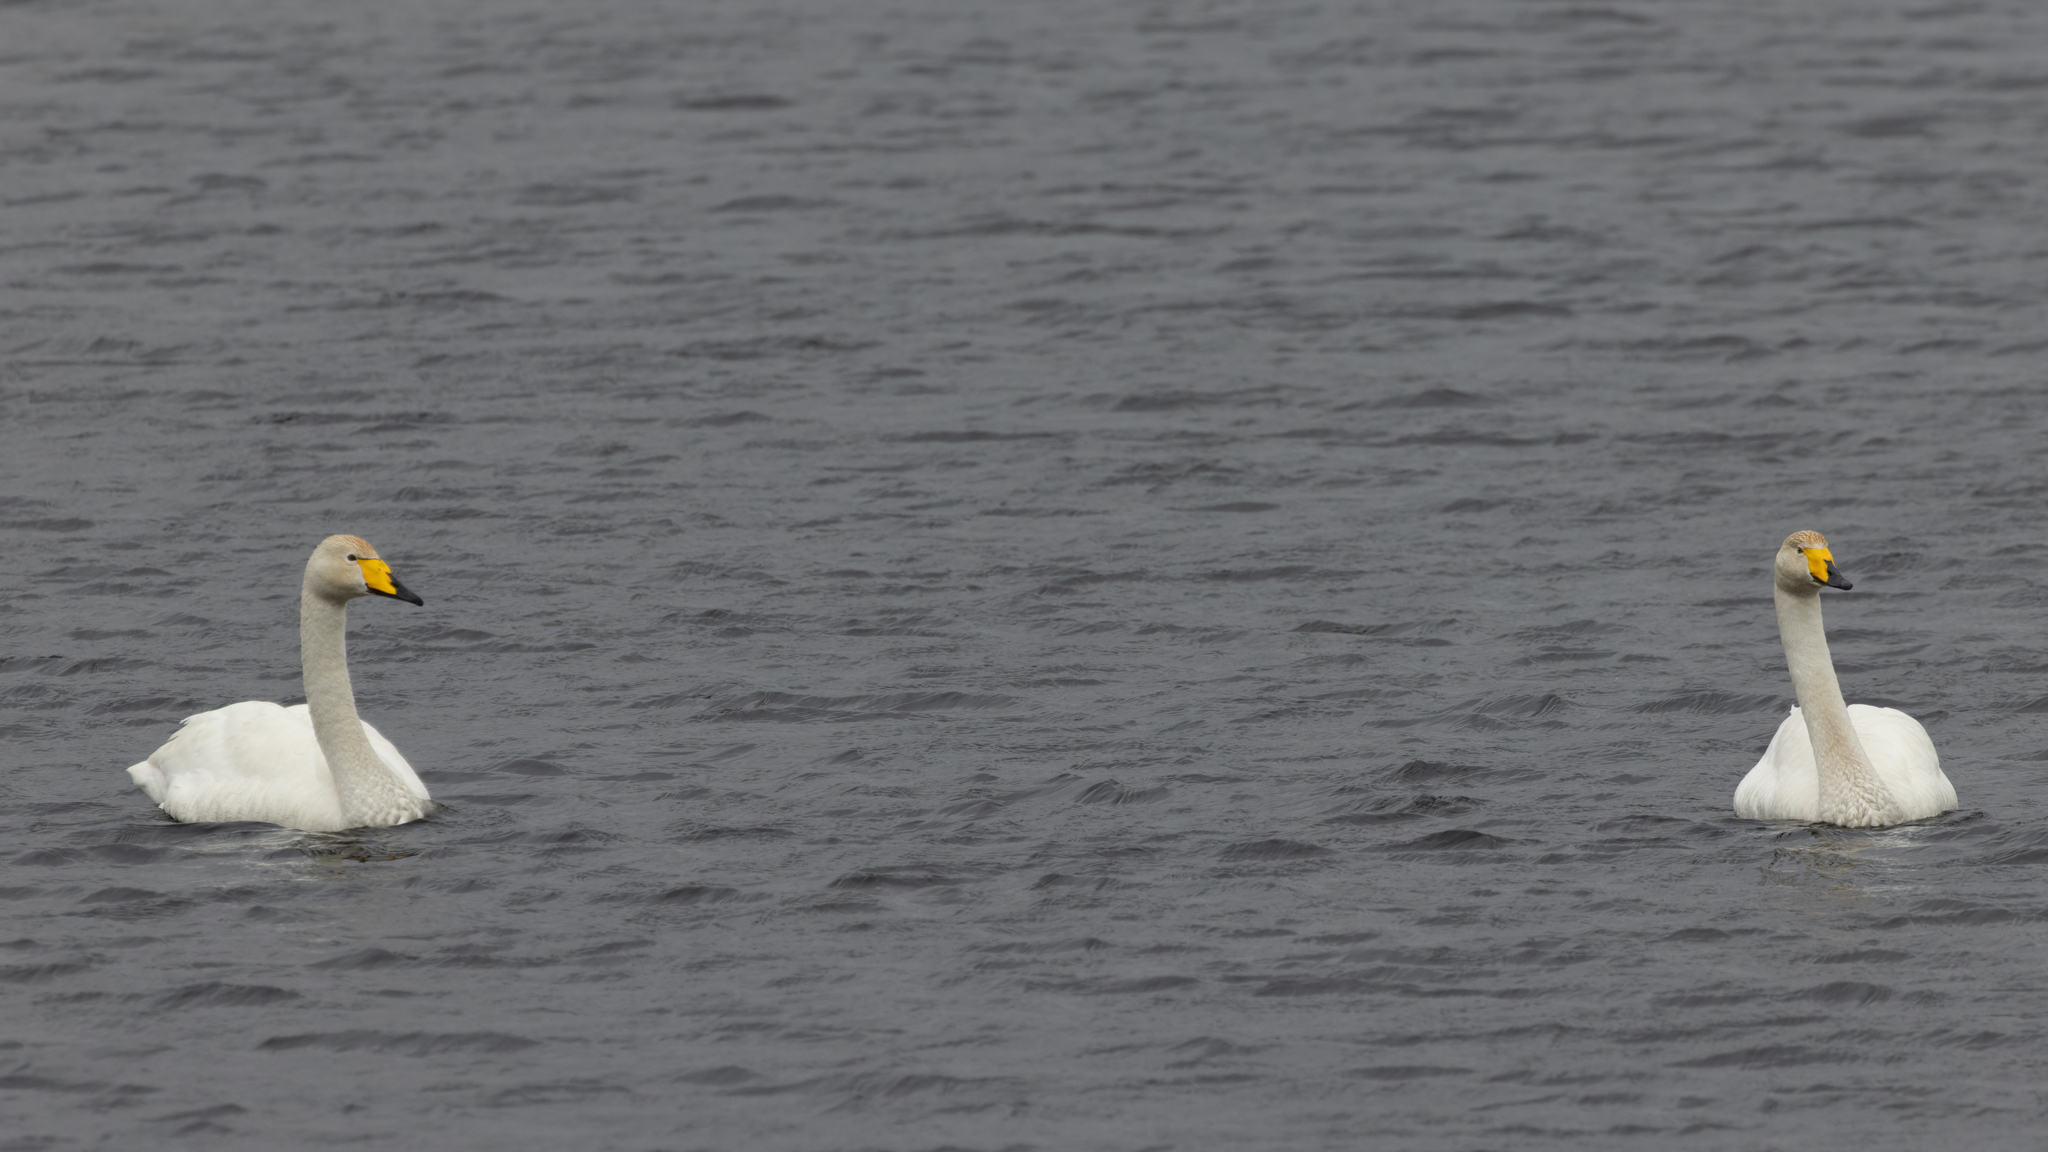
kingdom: Animalia
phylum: Chordata
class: Aves
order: Anseriformes
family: Anatidae
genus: Cygnus
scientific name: Cygnus cygnus
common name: Whooper swan
